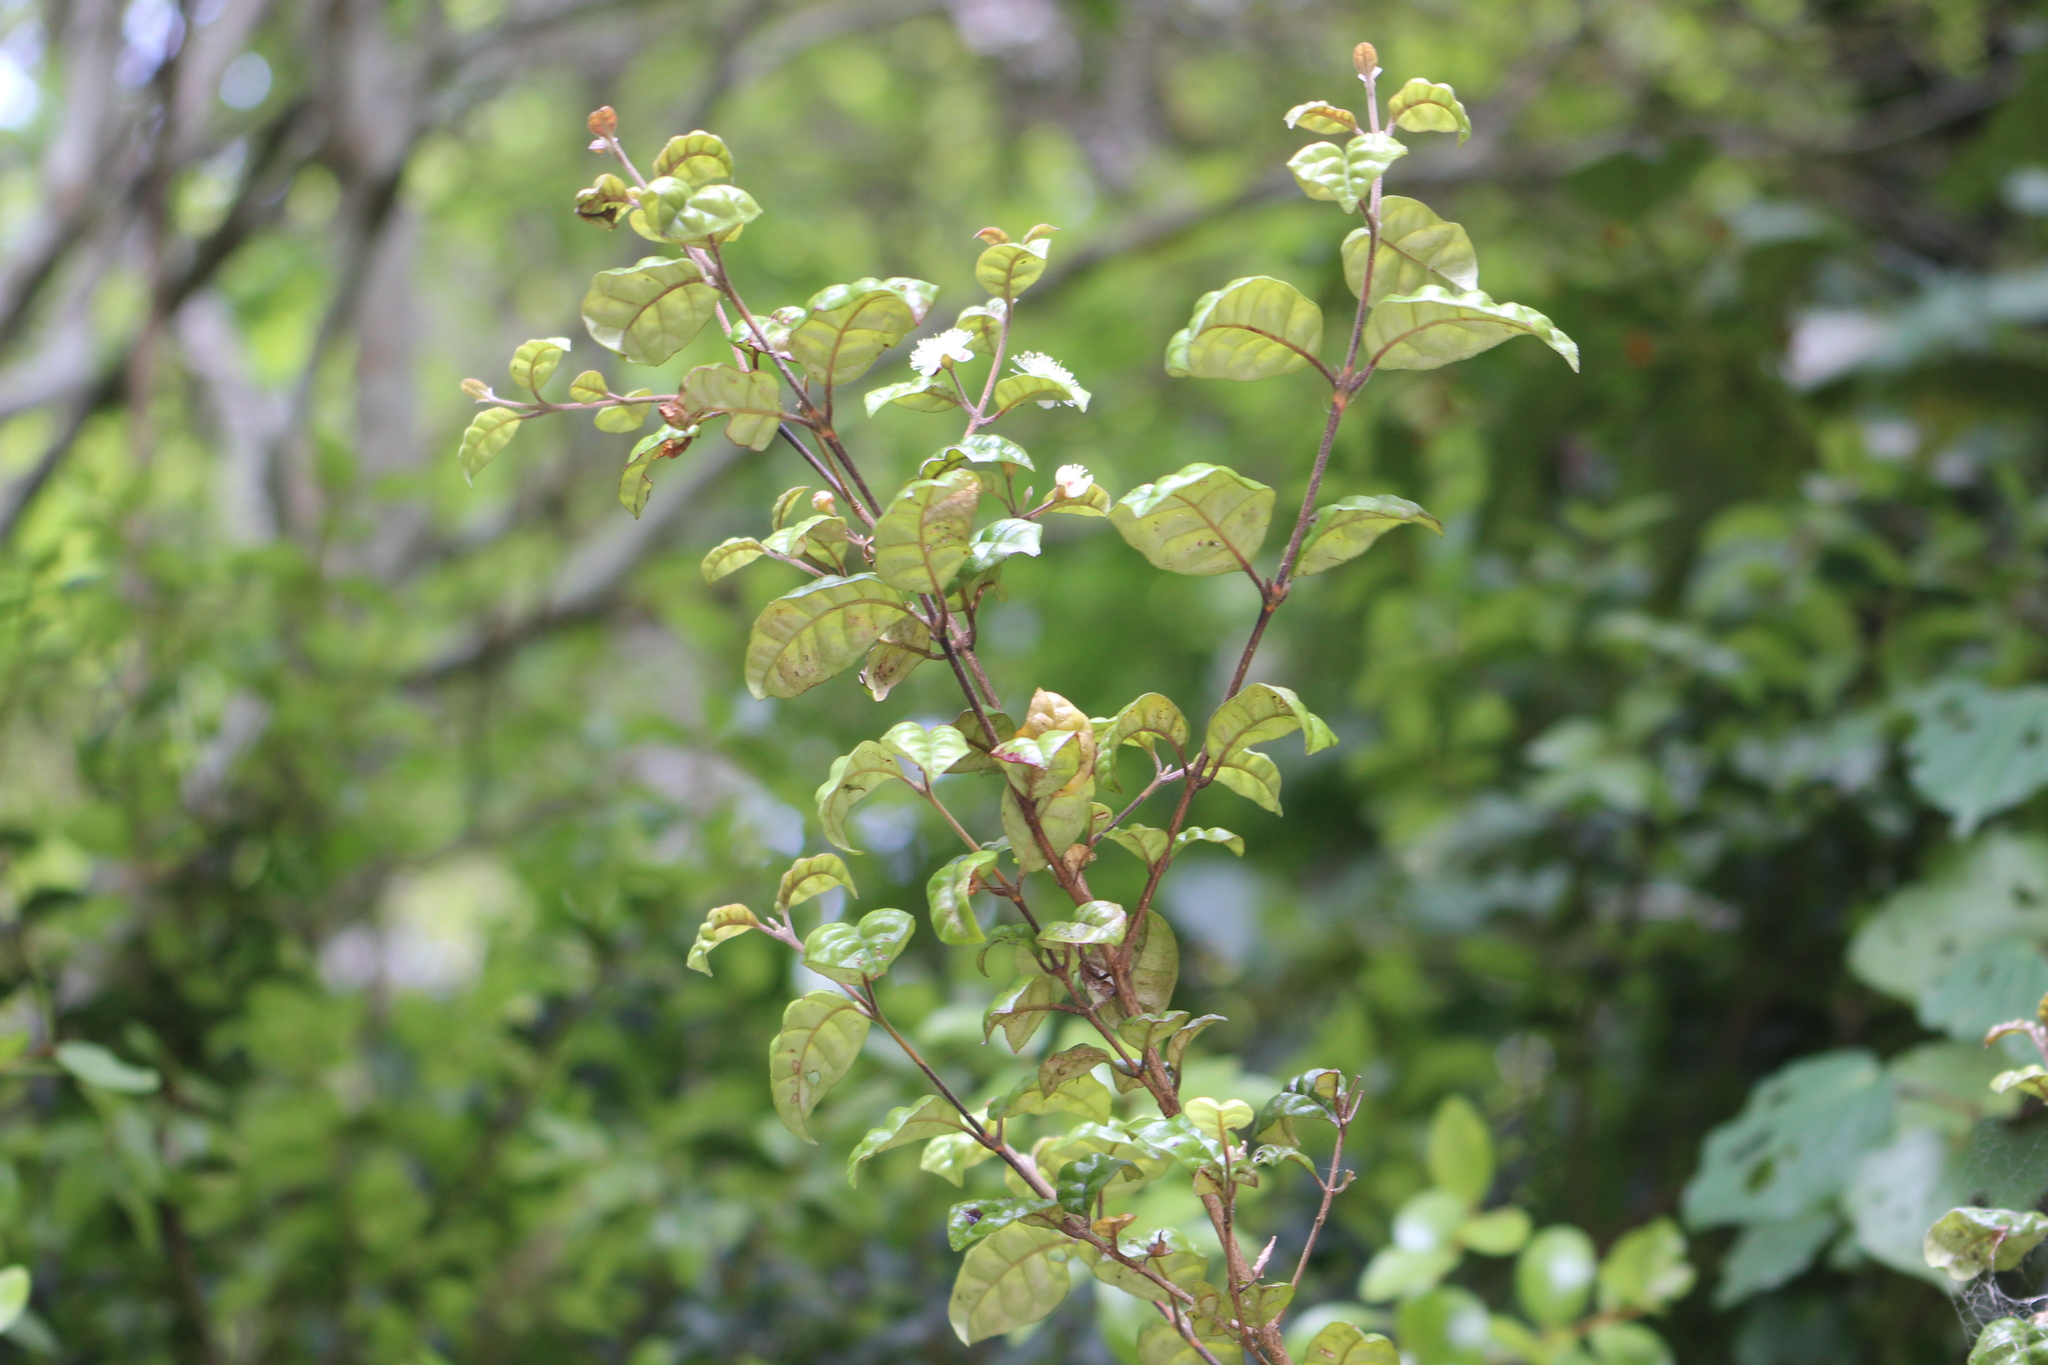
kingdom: Plantae
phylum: Tracheophyta
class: Magnoliopsida
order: Myrtales
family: Myrtaceae
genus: Lophomyrtus
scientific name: Lophomyrtus bullata
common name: Rama rama
